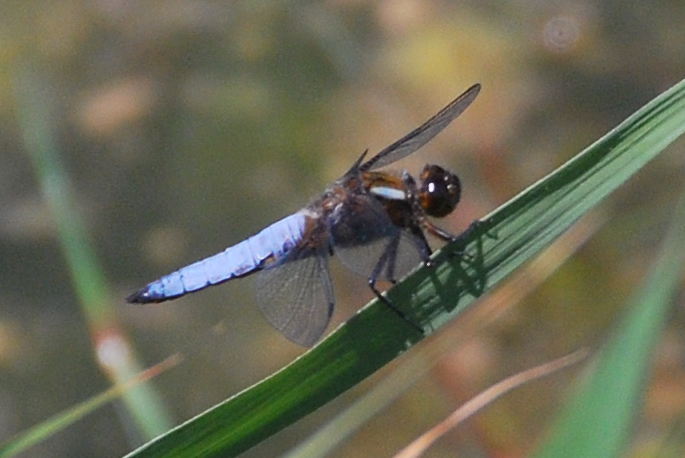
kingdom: Animalia
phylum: Arthropoda
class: Insecta
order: Odonata
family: Libellulidae
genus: Libellula
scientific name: Libellula depressa
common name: Broad-bodied chaser
